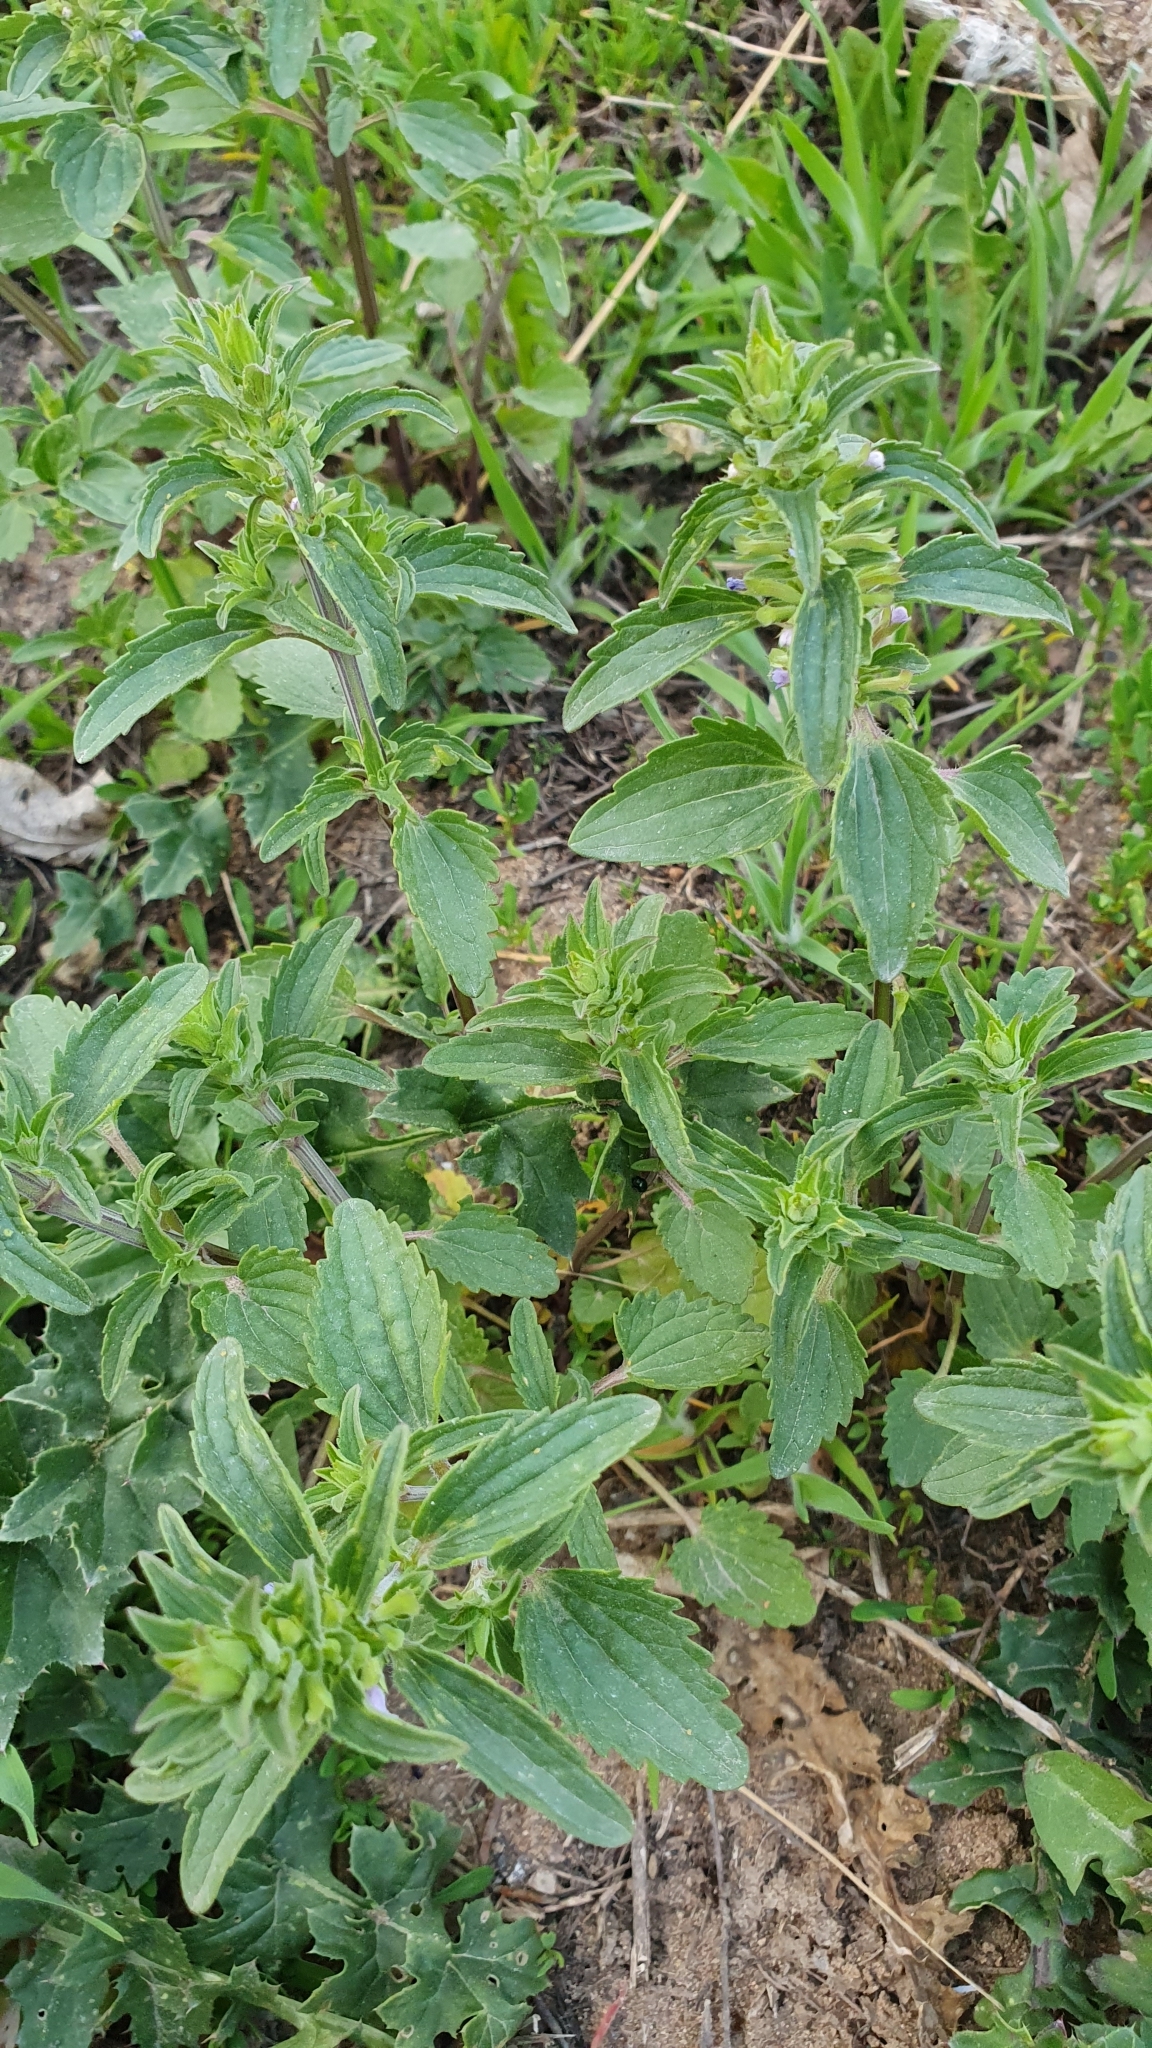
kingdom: Plantae
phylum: Tracheophyta
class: Magnoliopsida
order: Lamiales
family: Lamiaceae
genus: Dracocephalum
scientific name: Dracocephalum thymiflorum
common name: Thymeleaf dragonhead
